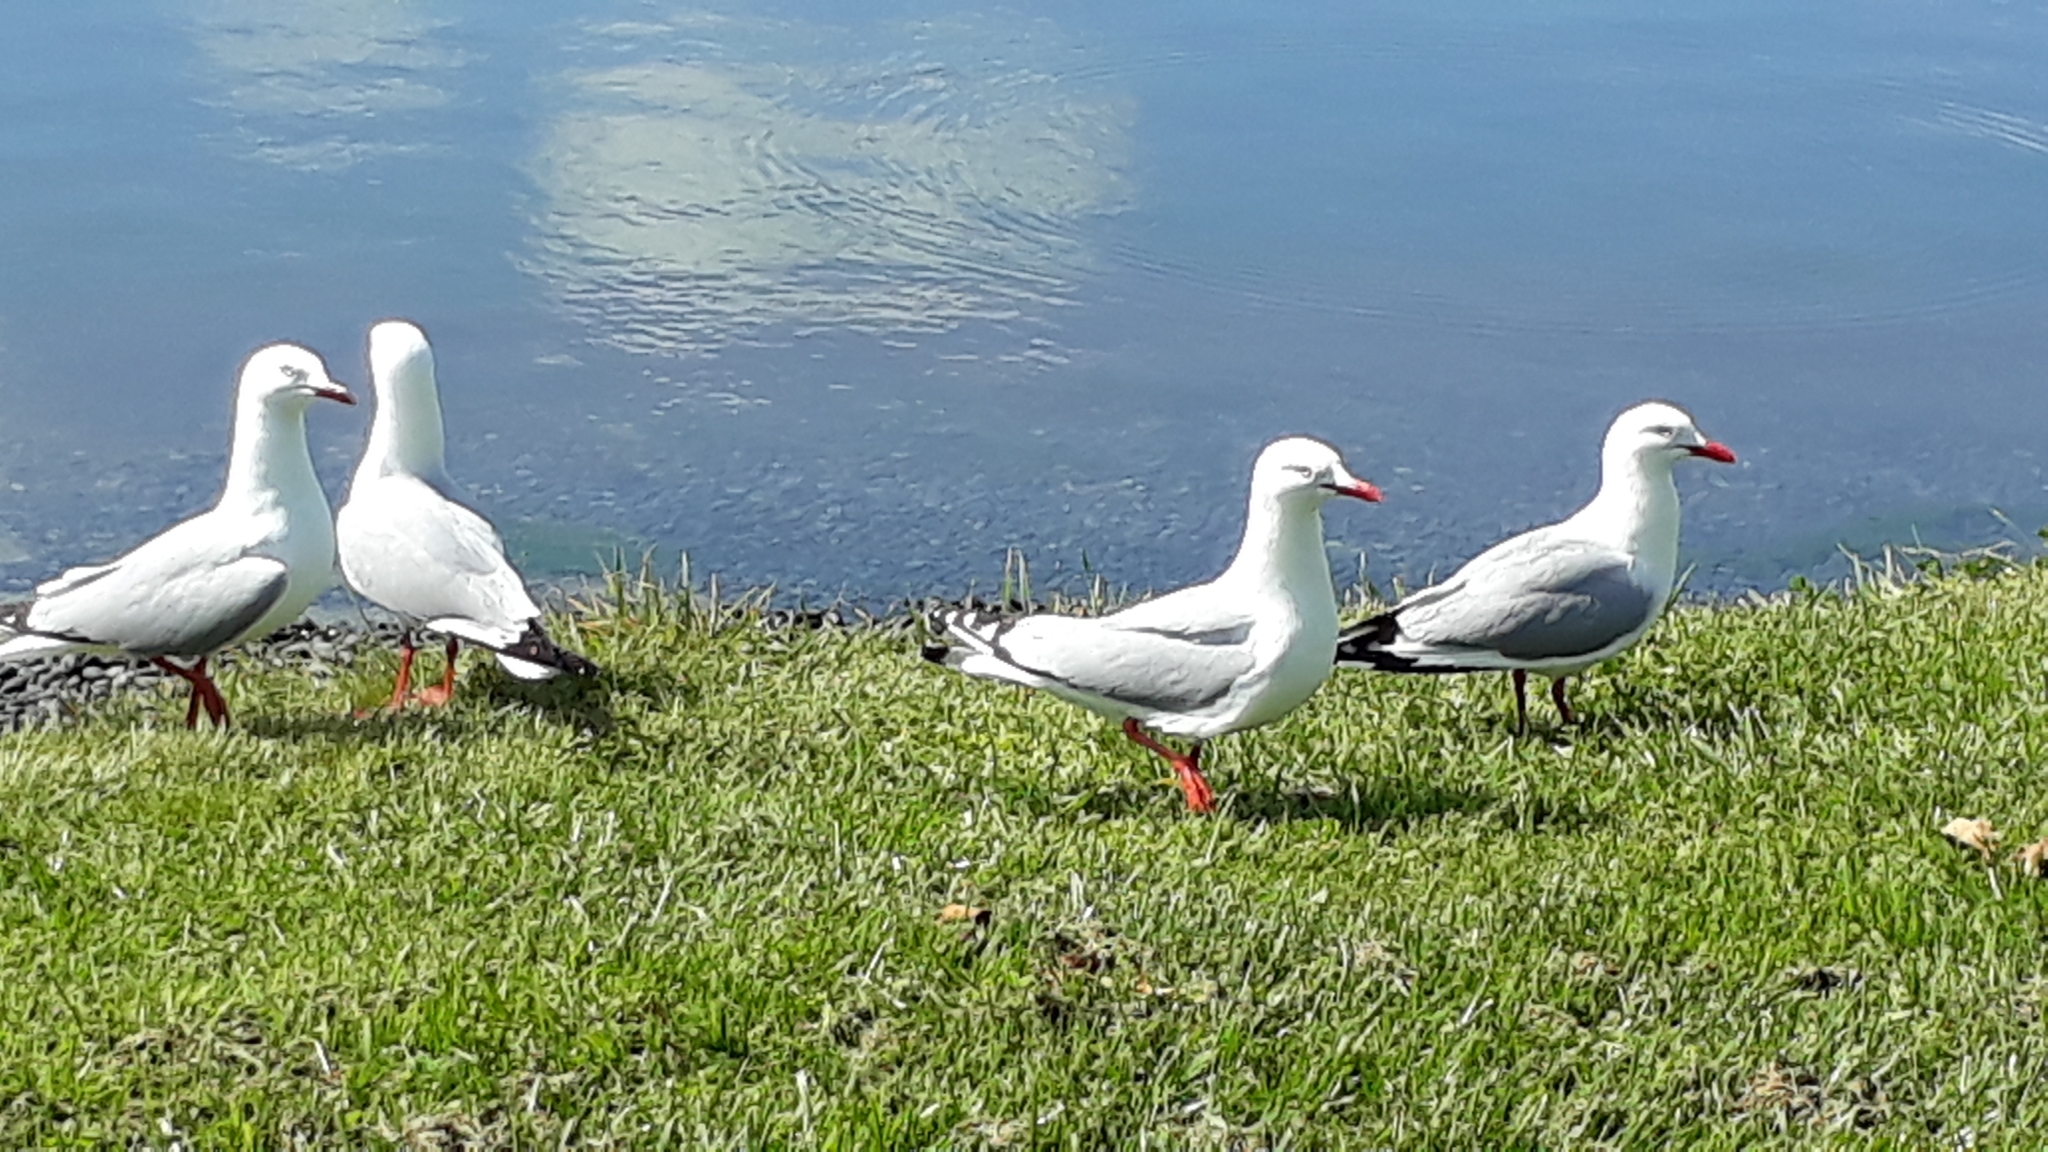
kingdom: Animalia
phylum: Chordata
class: Aves
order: Charadriiformes
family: Laridae
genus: Chroicocephalus
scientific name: Chroicocephalus novaehollandiae
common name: Silver gull
